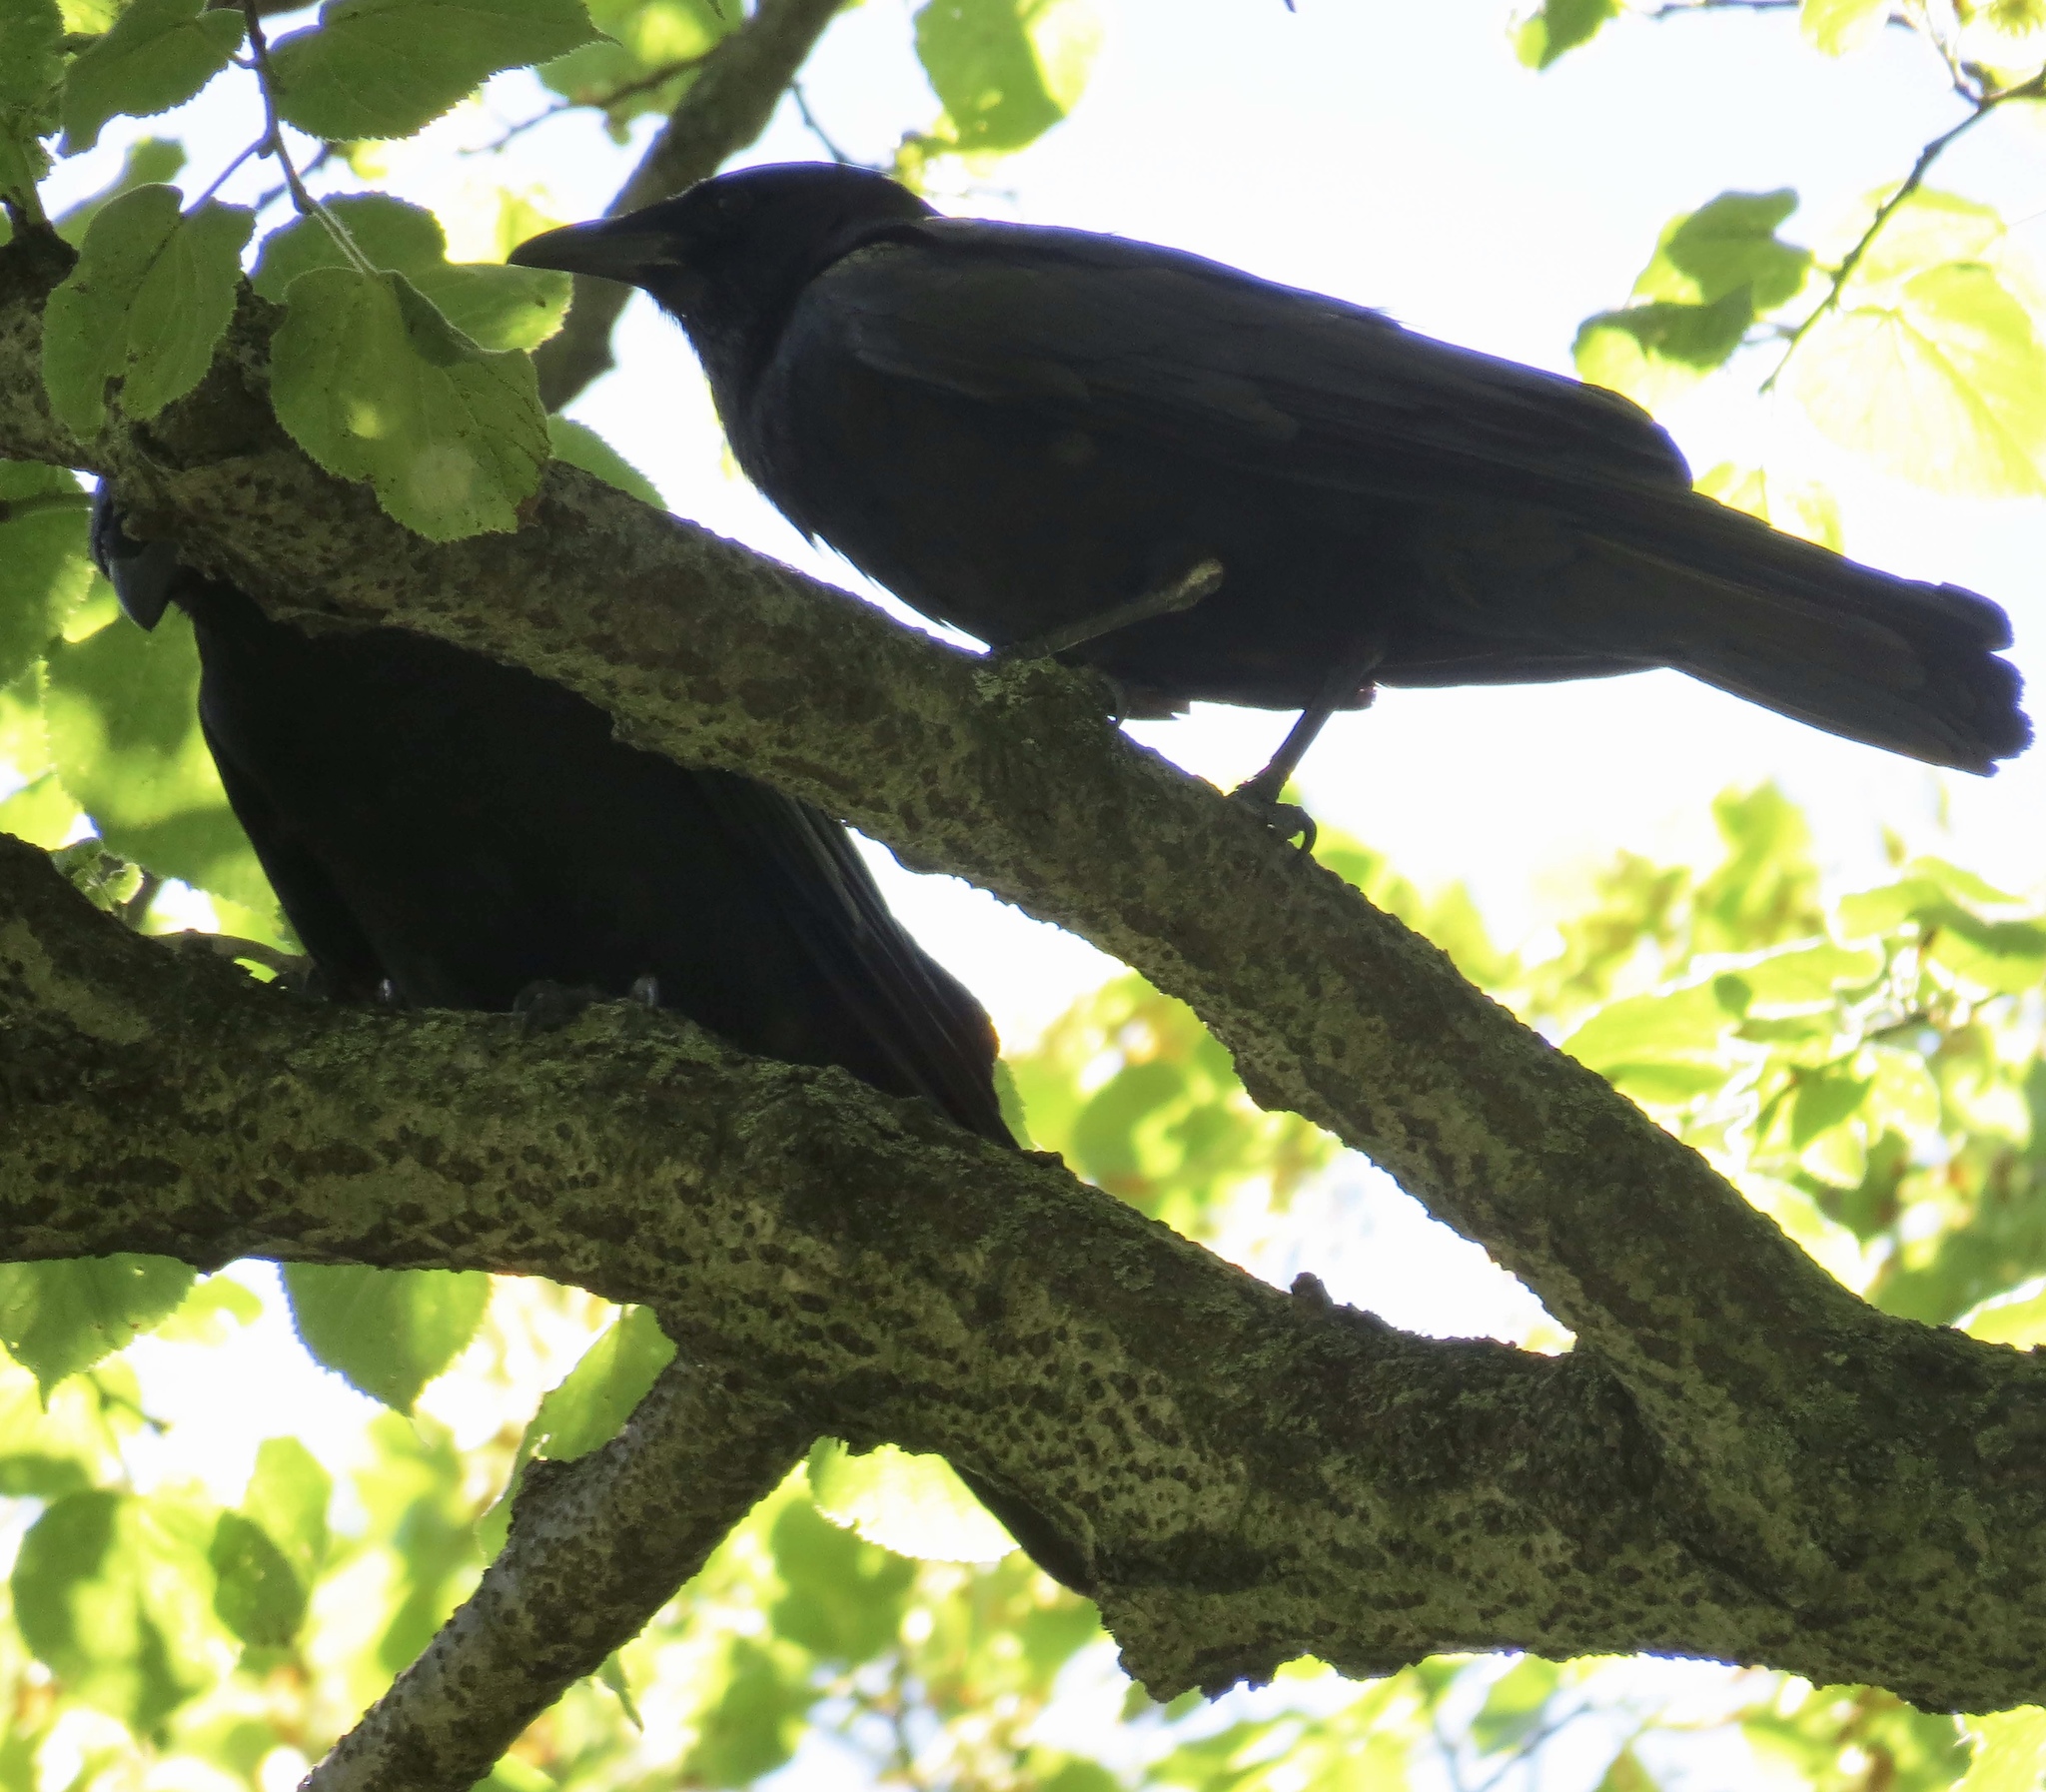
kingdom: Animalia
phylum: Chordata
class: Aves
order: Passeriformes
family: Corvidae
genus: Corvus
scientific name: Corvus brachyrhynchos
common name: American crow
